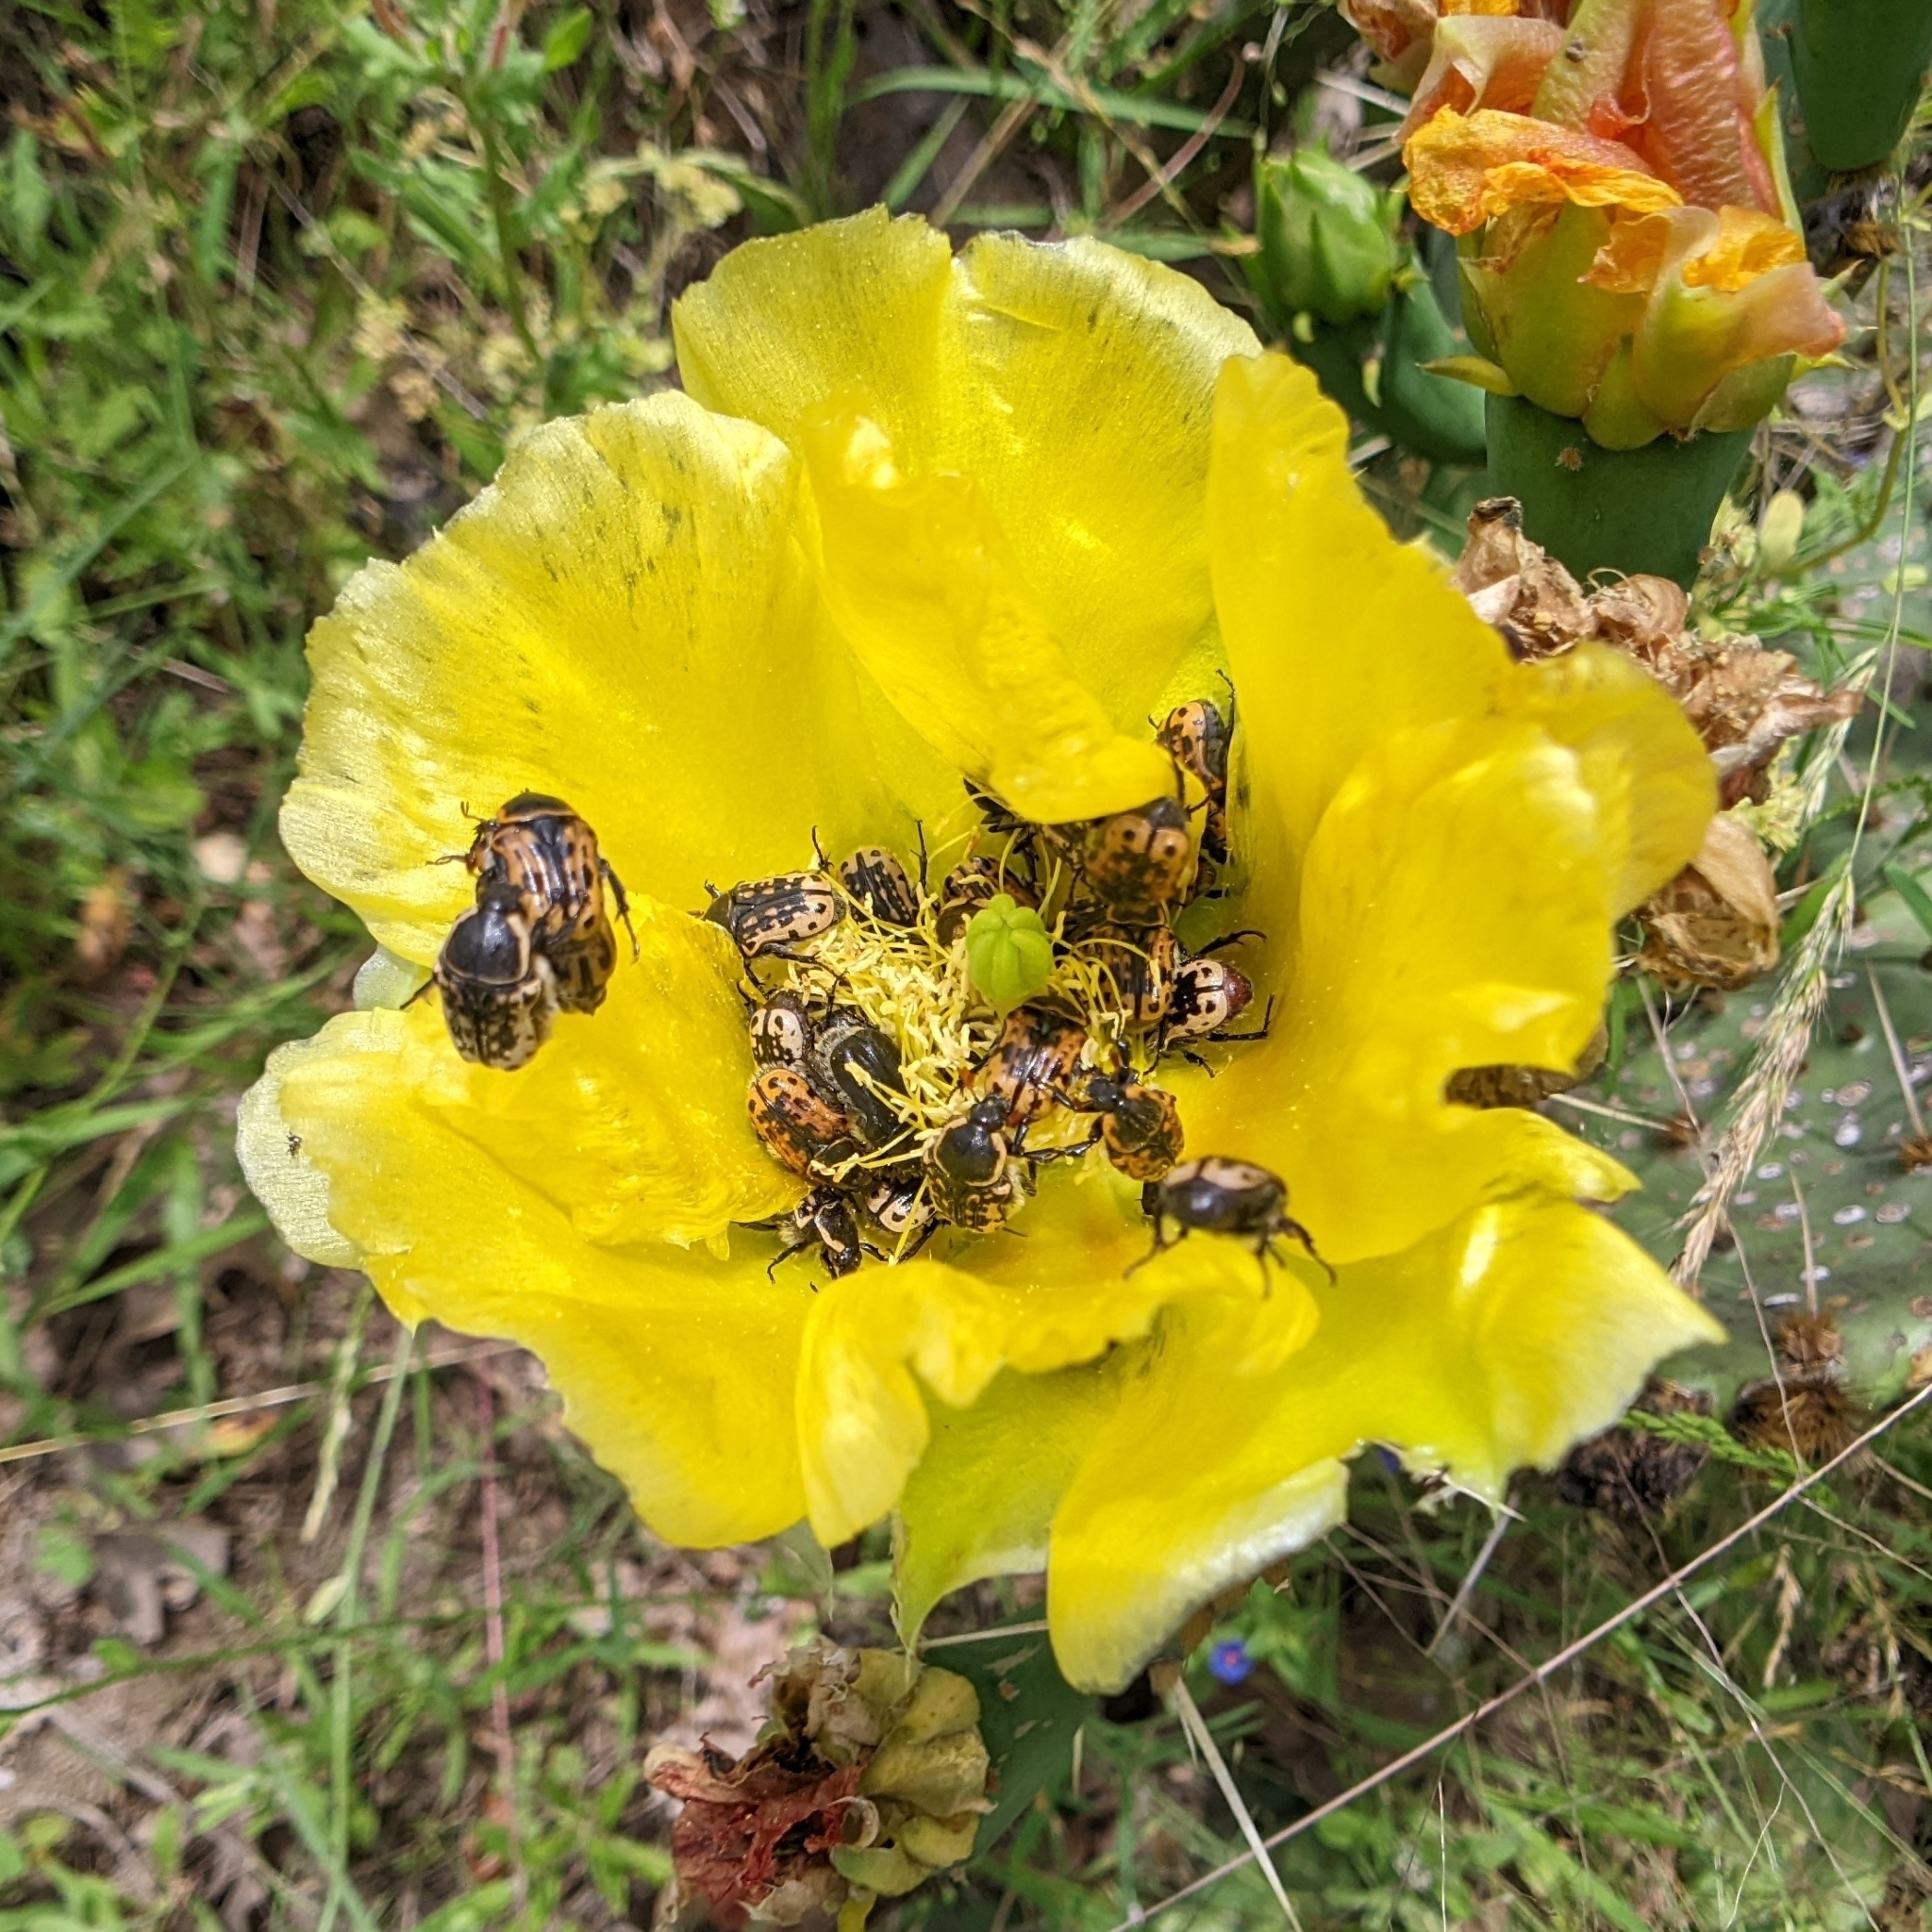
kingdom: Animalia
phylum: Arthropoda
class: Insecta
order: Coleoptera
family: Scarabaeidae
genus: Euphoria
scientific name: Euphoria kernii
